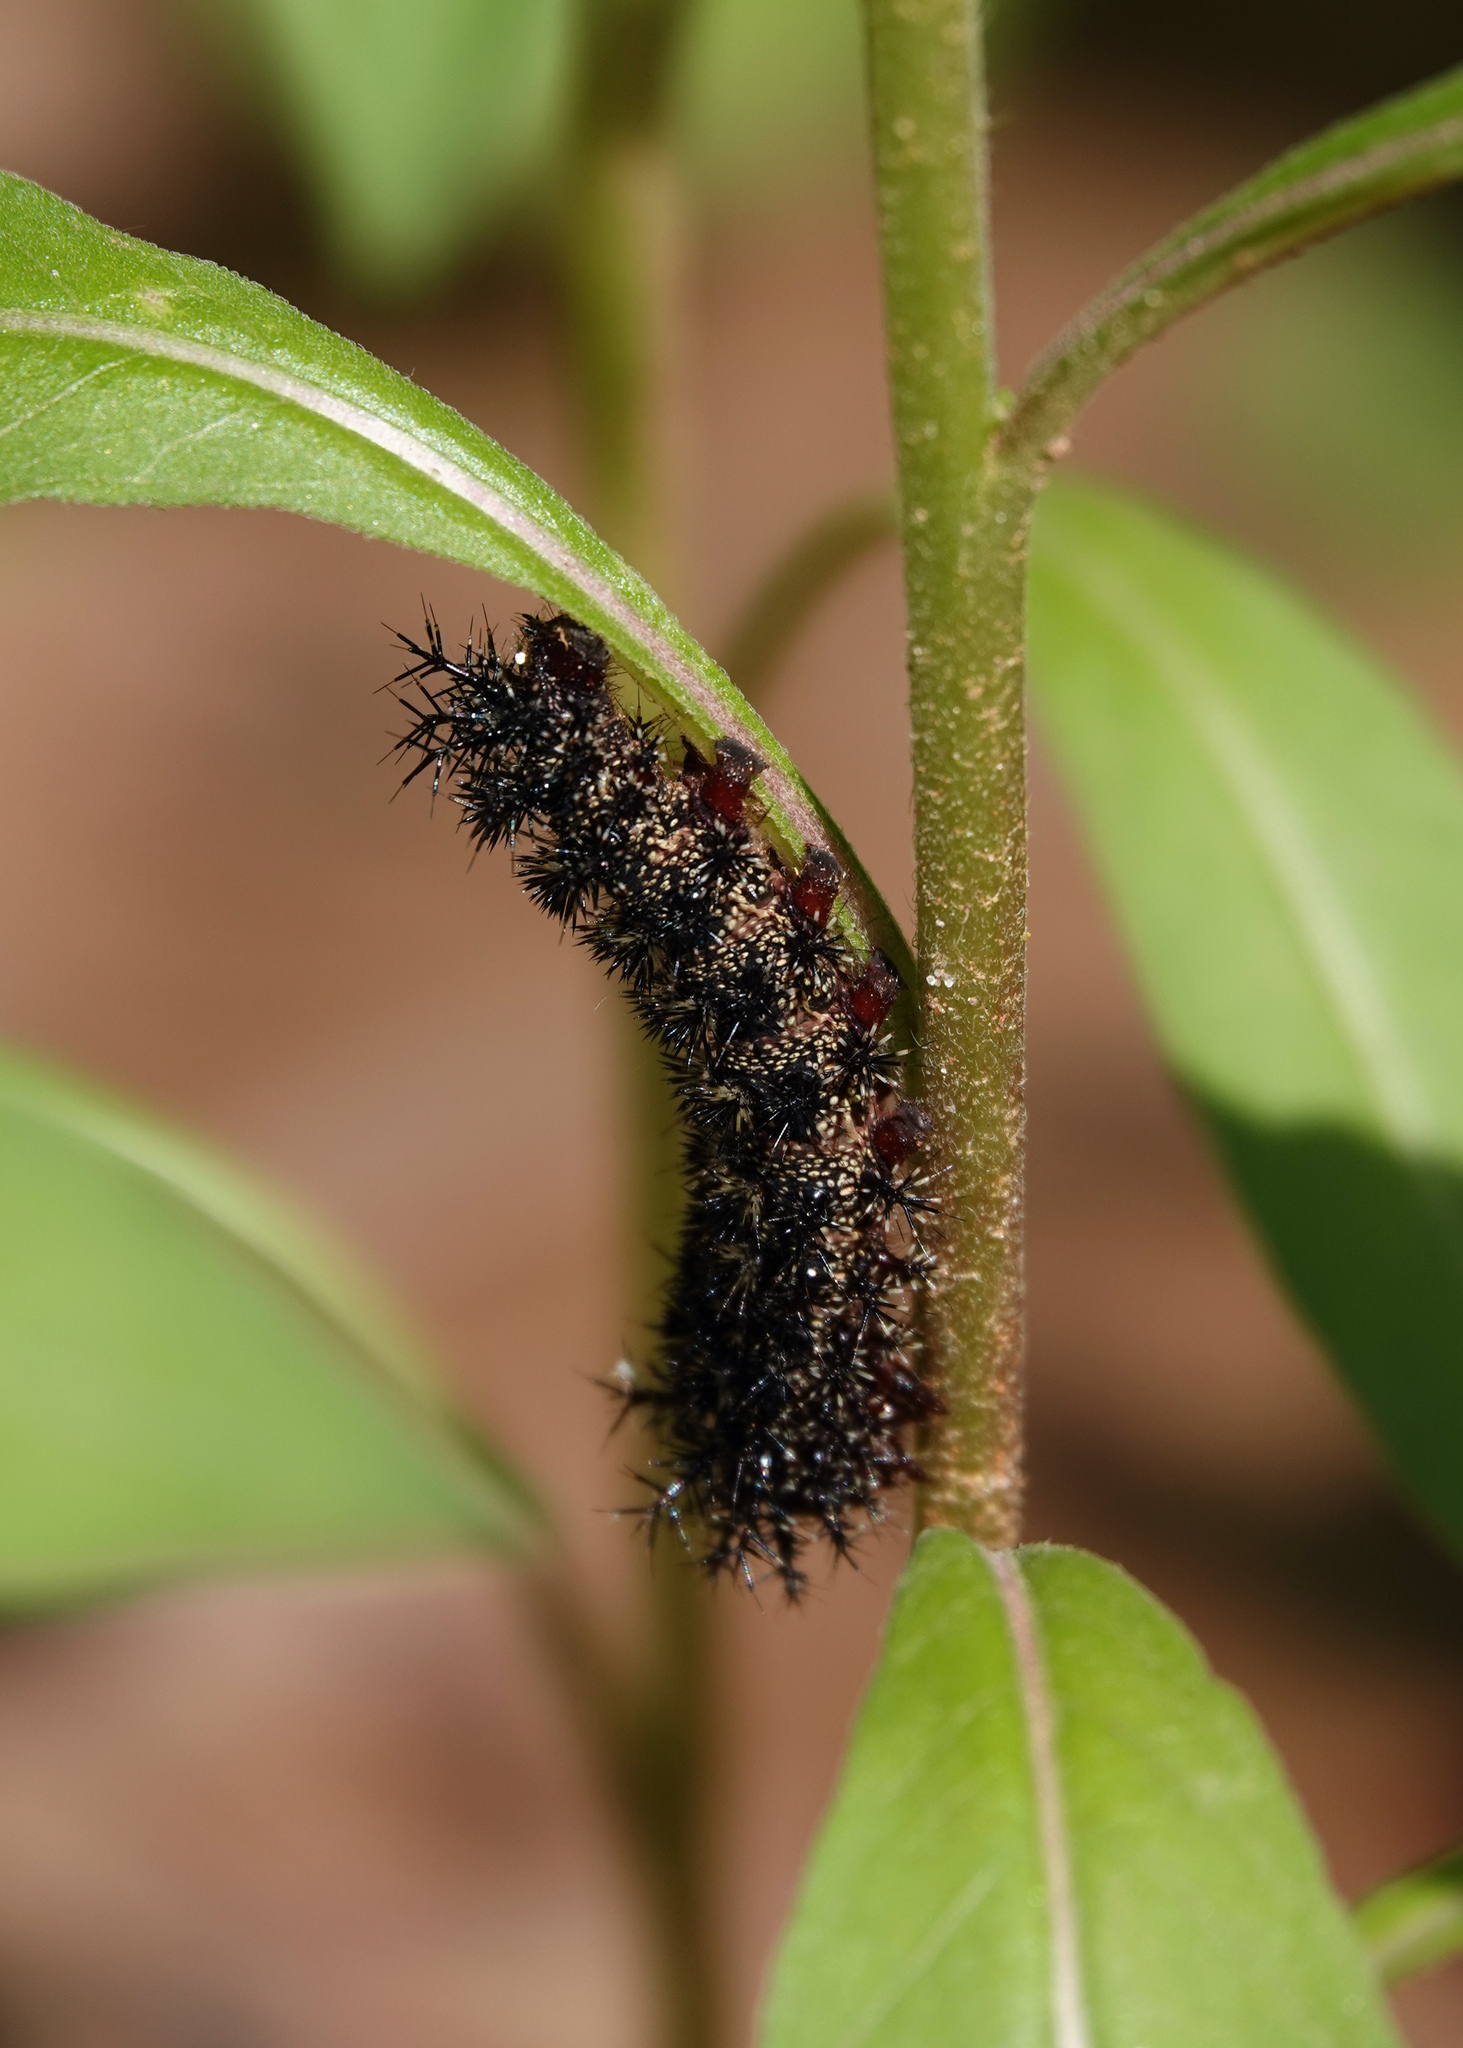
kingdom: Animalia
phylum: Arthropoda
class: Insecta
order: Lepidoptera
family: Saturniidae
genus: Hemileuca
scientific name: Hemileuca maia
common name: Eastern buckmoth
